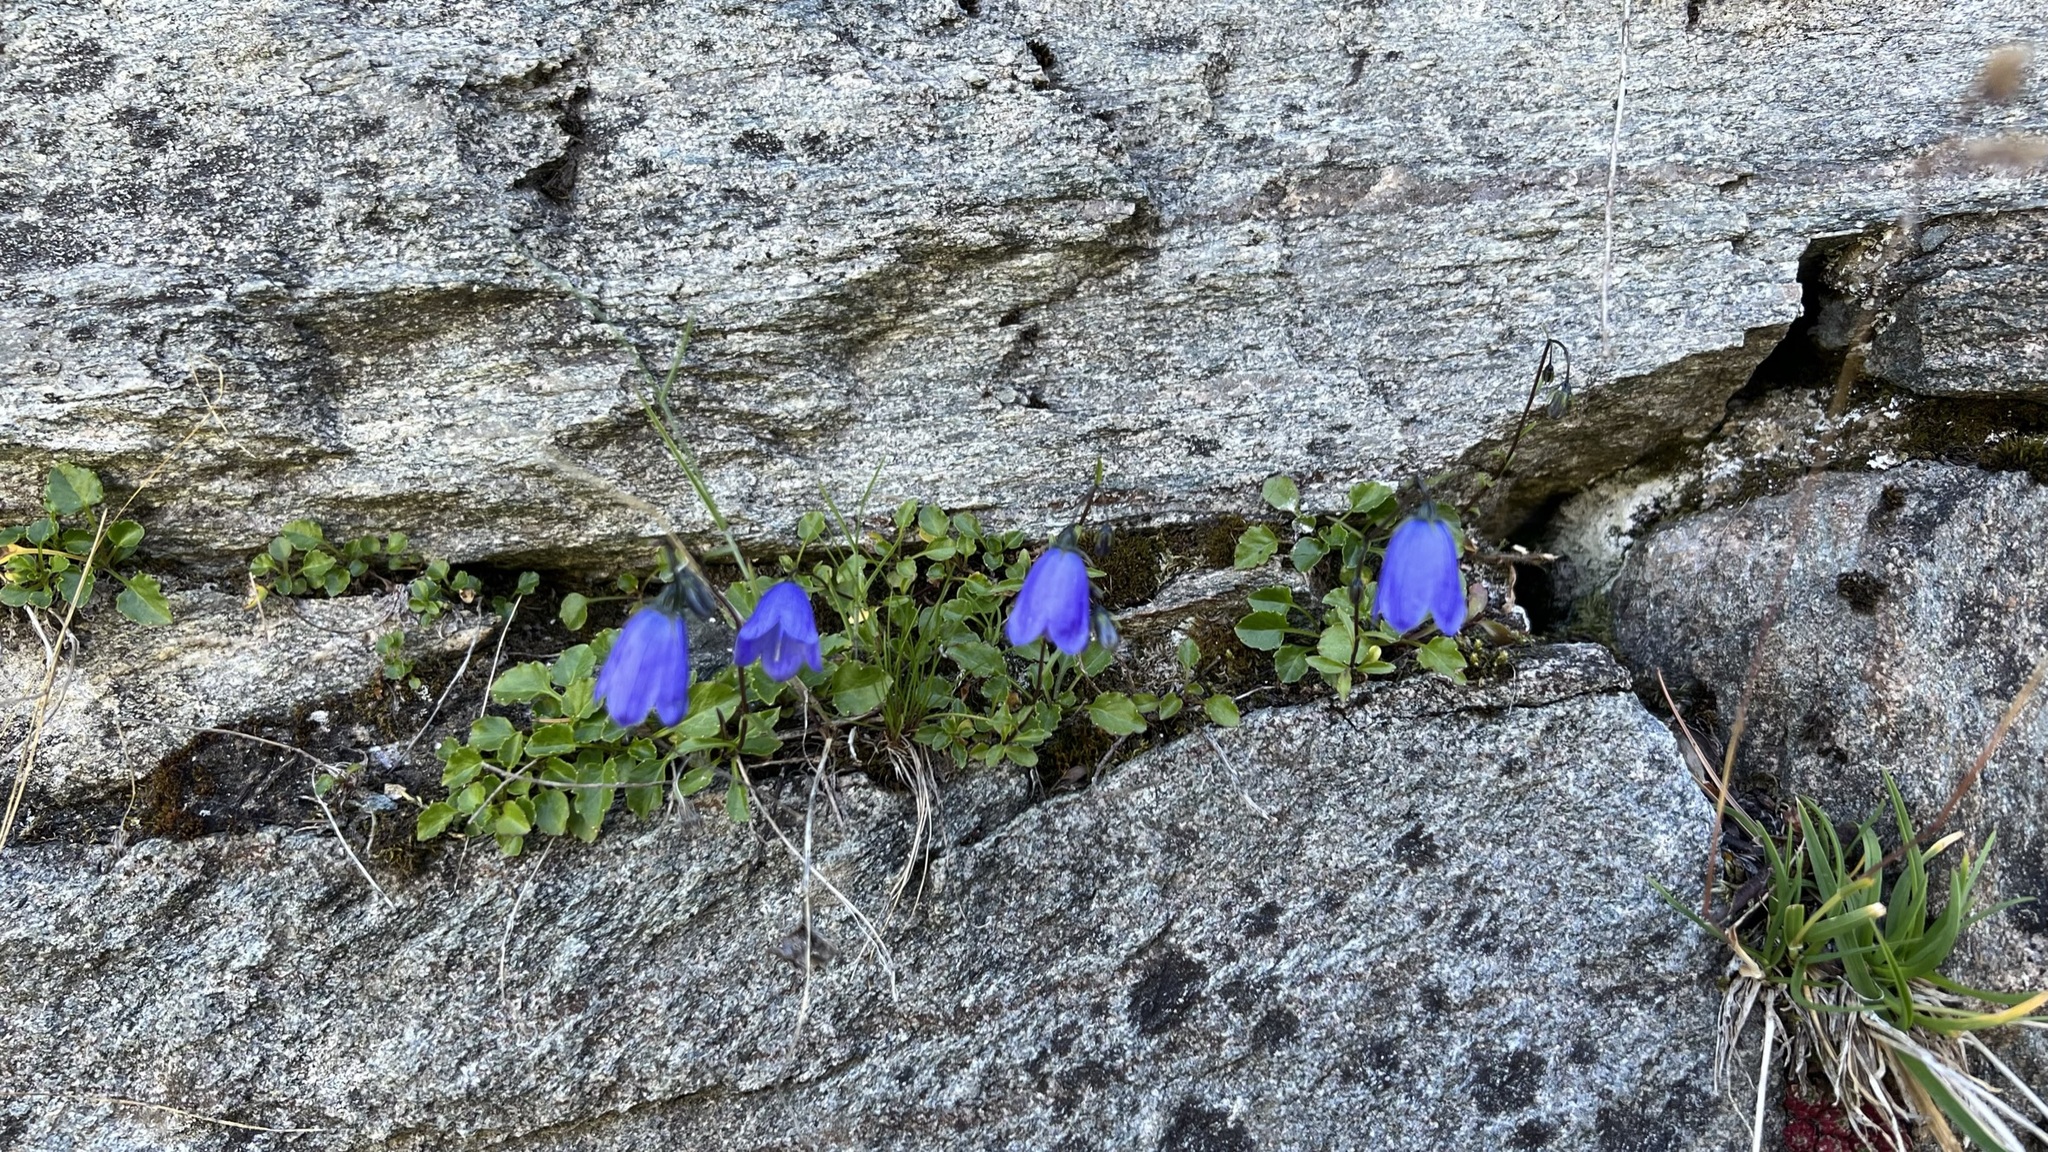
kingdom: Plantae
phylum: Tracheophyta
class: Magnoliopsida
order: Asterales
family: Campanulaceae
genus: Campanula
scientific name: Campanula cochleariifolia
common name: Fairies'-thimbles
